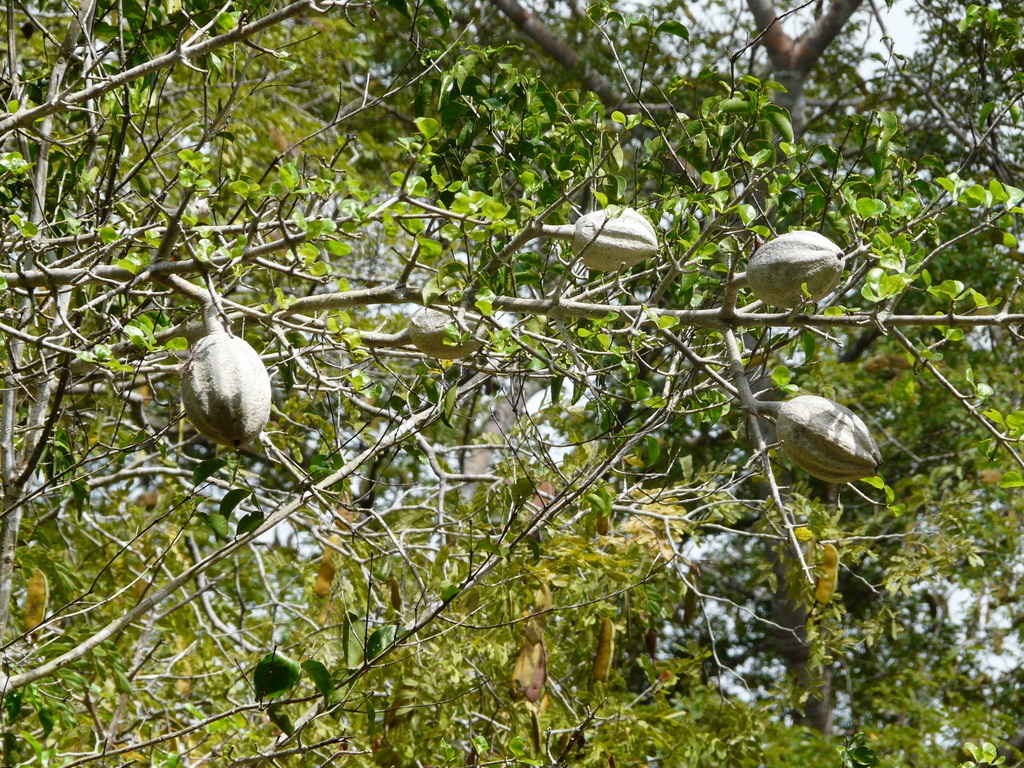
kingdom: Plantae
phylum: Tracheophyta
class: Magnoliopsida
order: Gentianales
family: Rubiaceae
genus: Gardenia
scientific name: Gardenia volkensii
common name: Common gardenia
